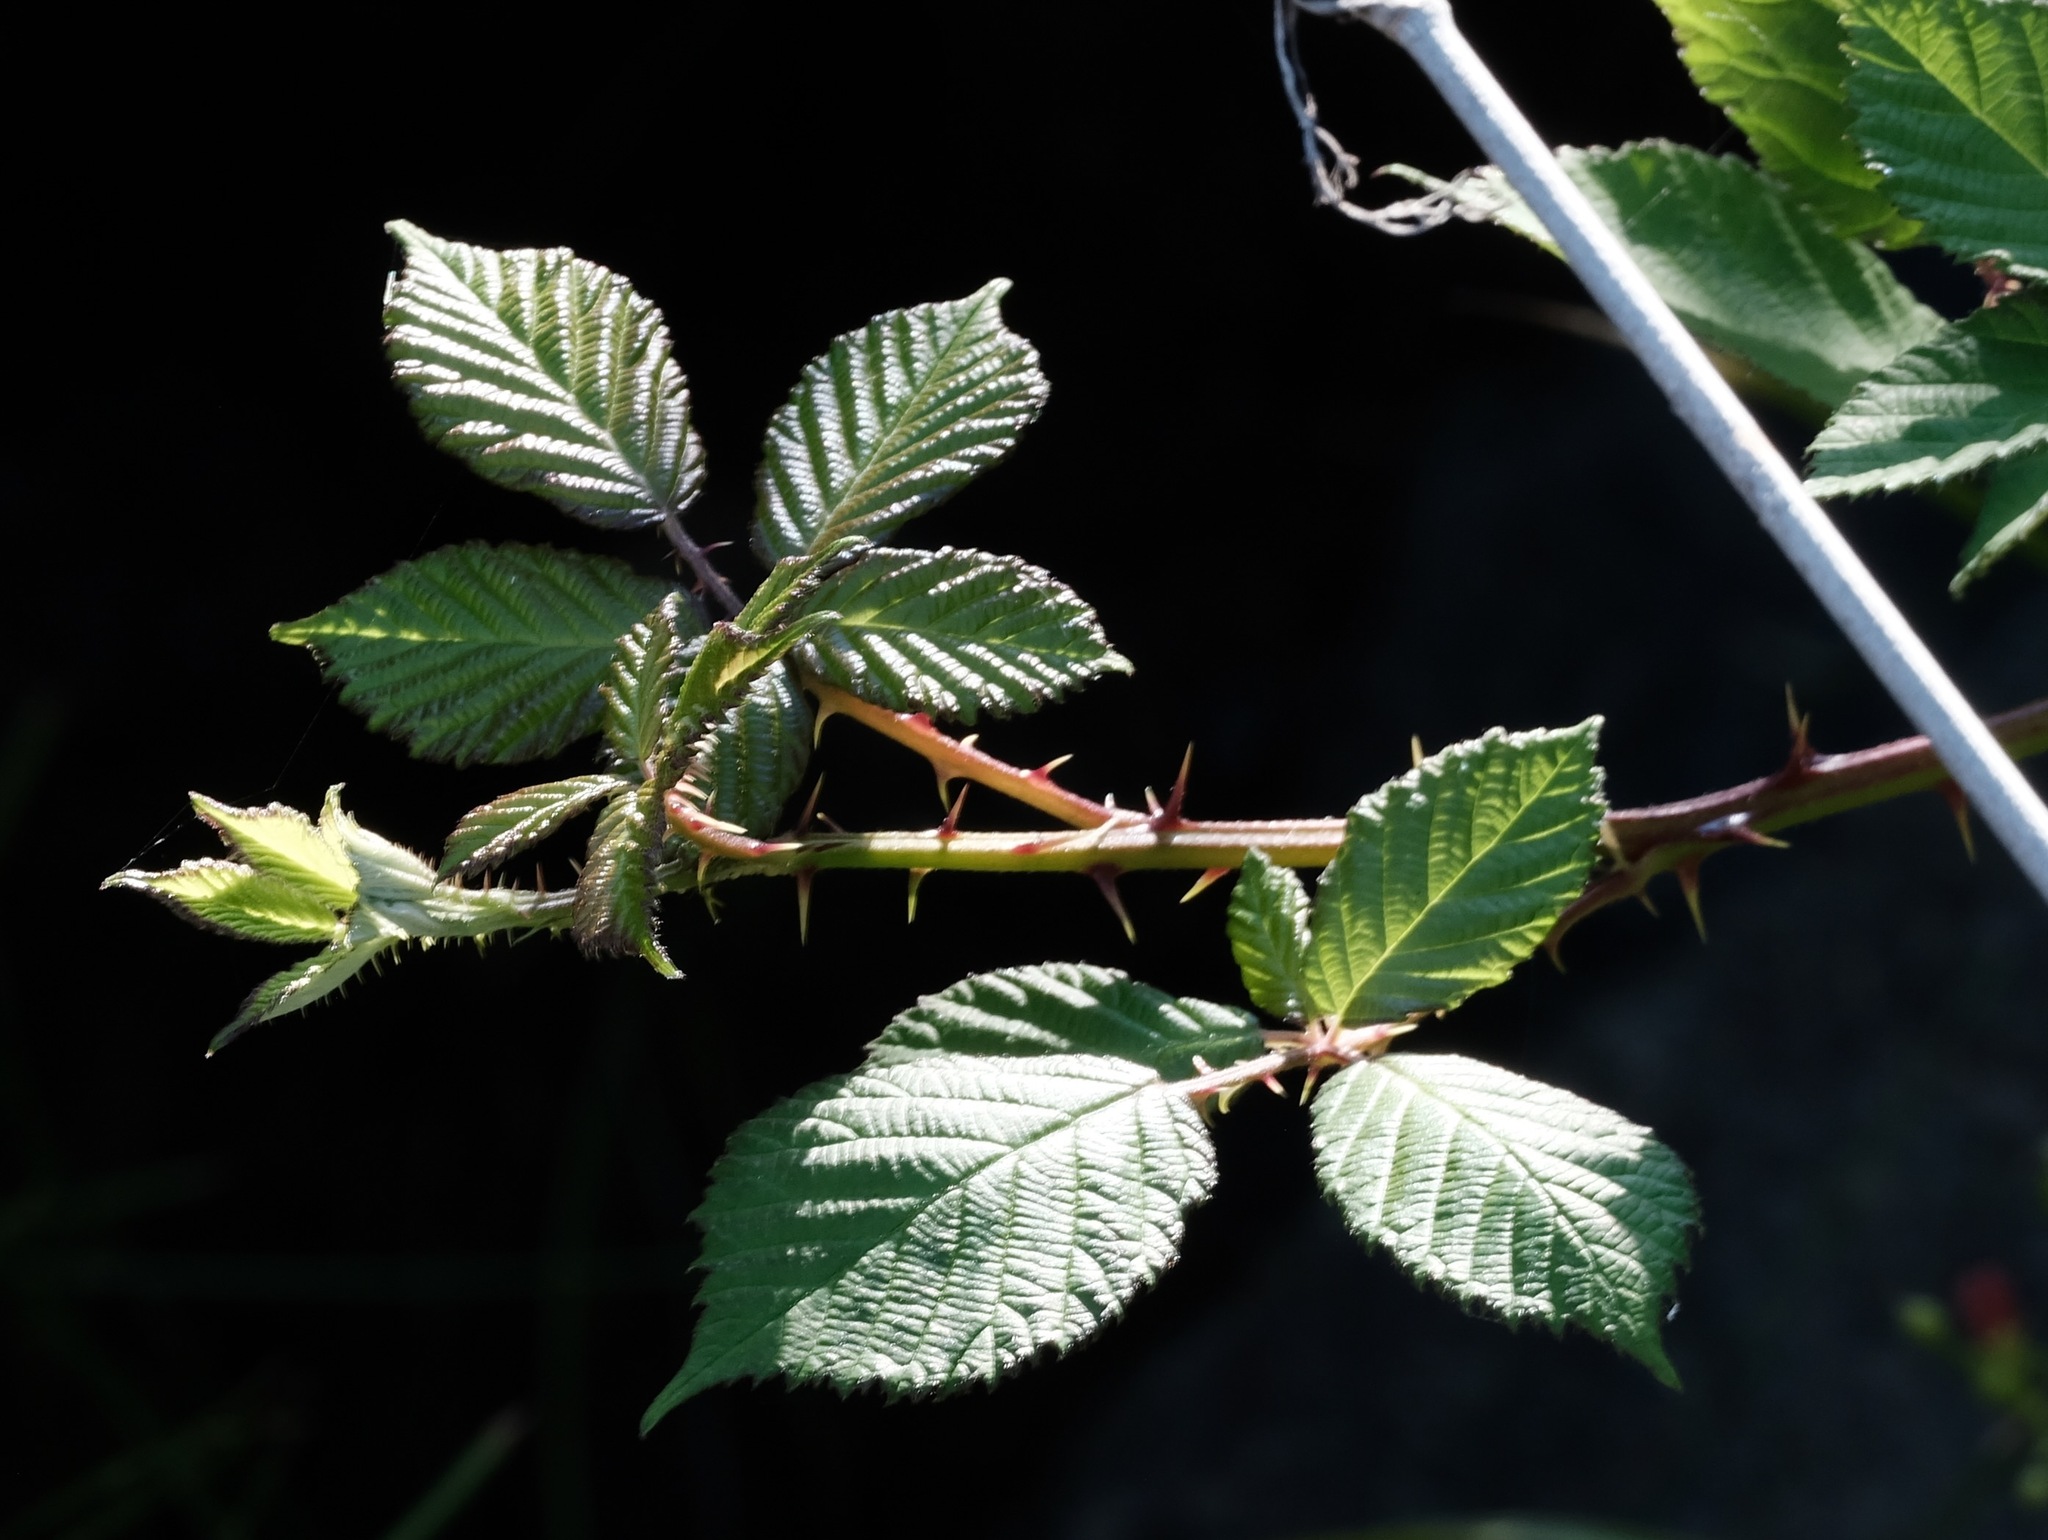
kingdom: Plantae
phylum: Tracheophyta
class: Magnoliopsida
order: Rosales
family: Rosaceae
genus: Rubus
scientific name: Rubus armeniacus
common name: Himalayan blackberry
